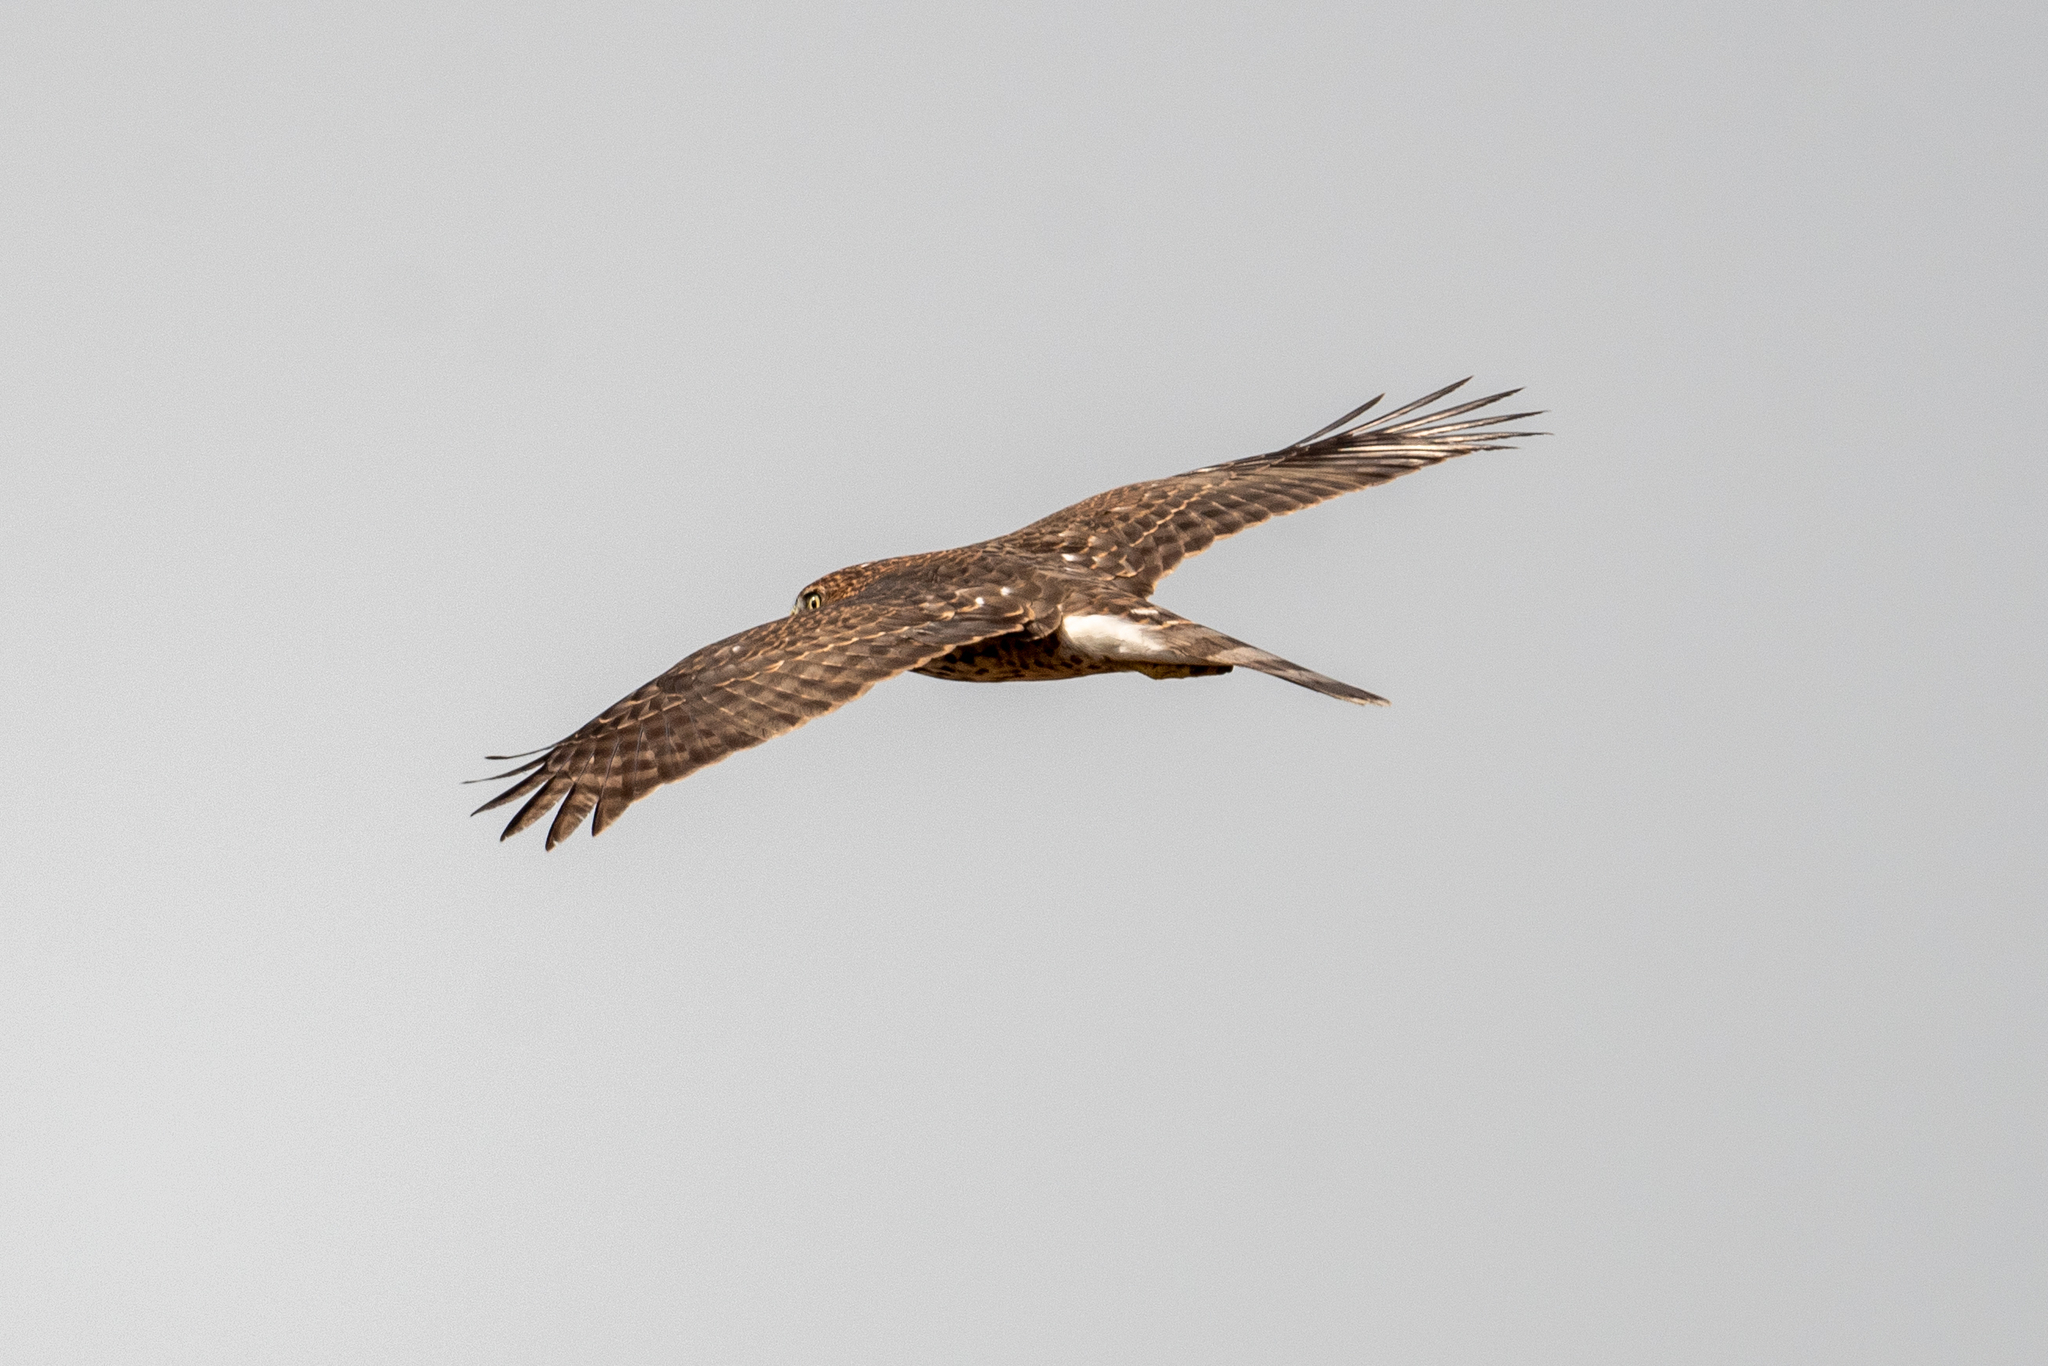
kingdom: Animalia
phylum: Chordata
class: Aves
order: Accipitriformes
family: Accipitridae
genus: Accipiter
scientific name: Accipiter cooperii
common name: Cooper's hawk
